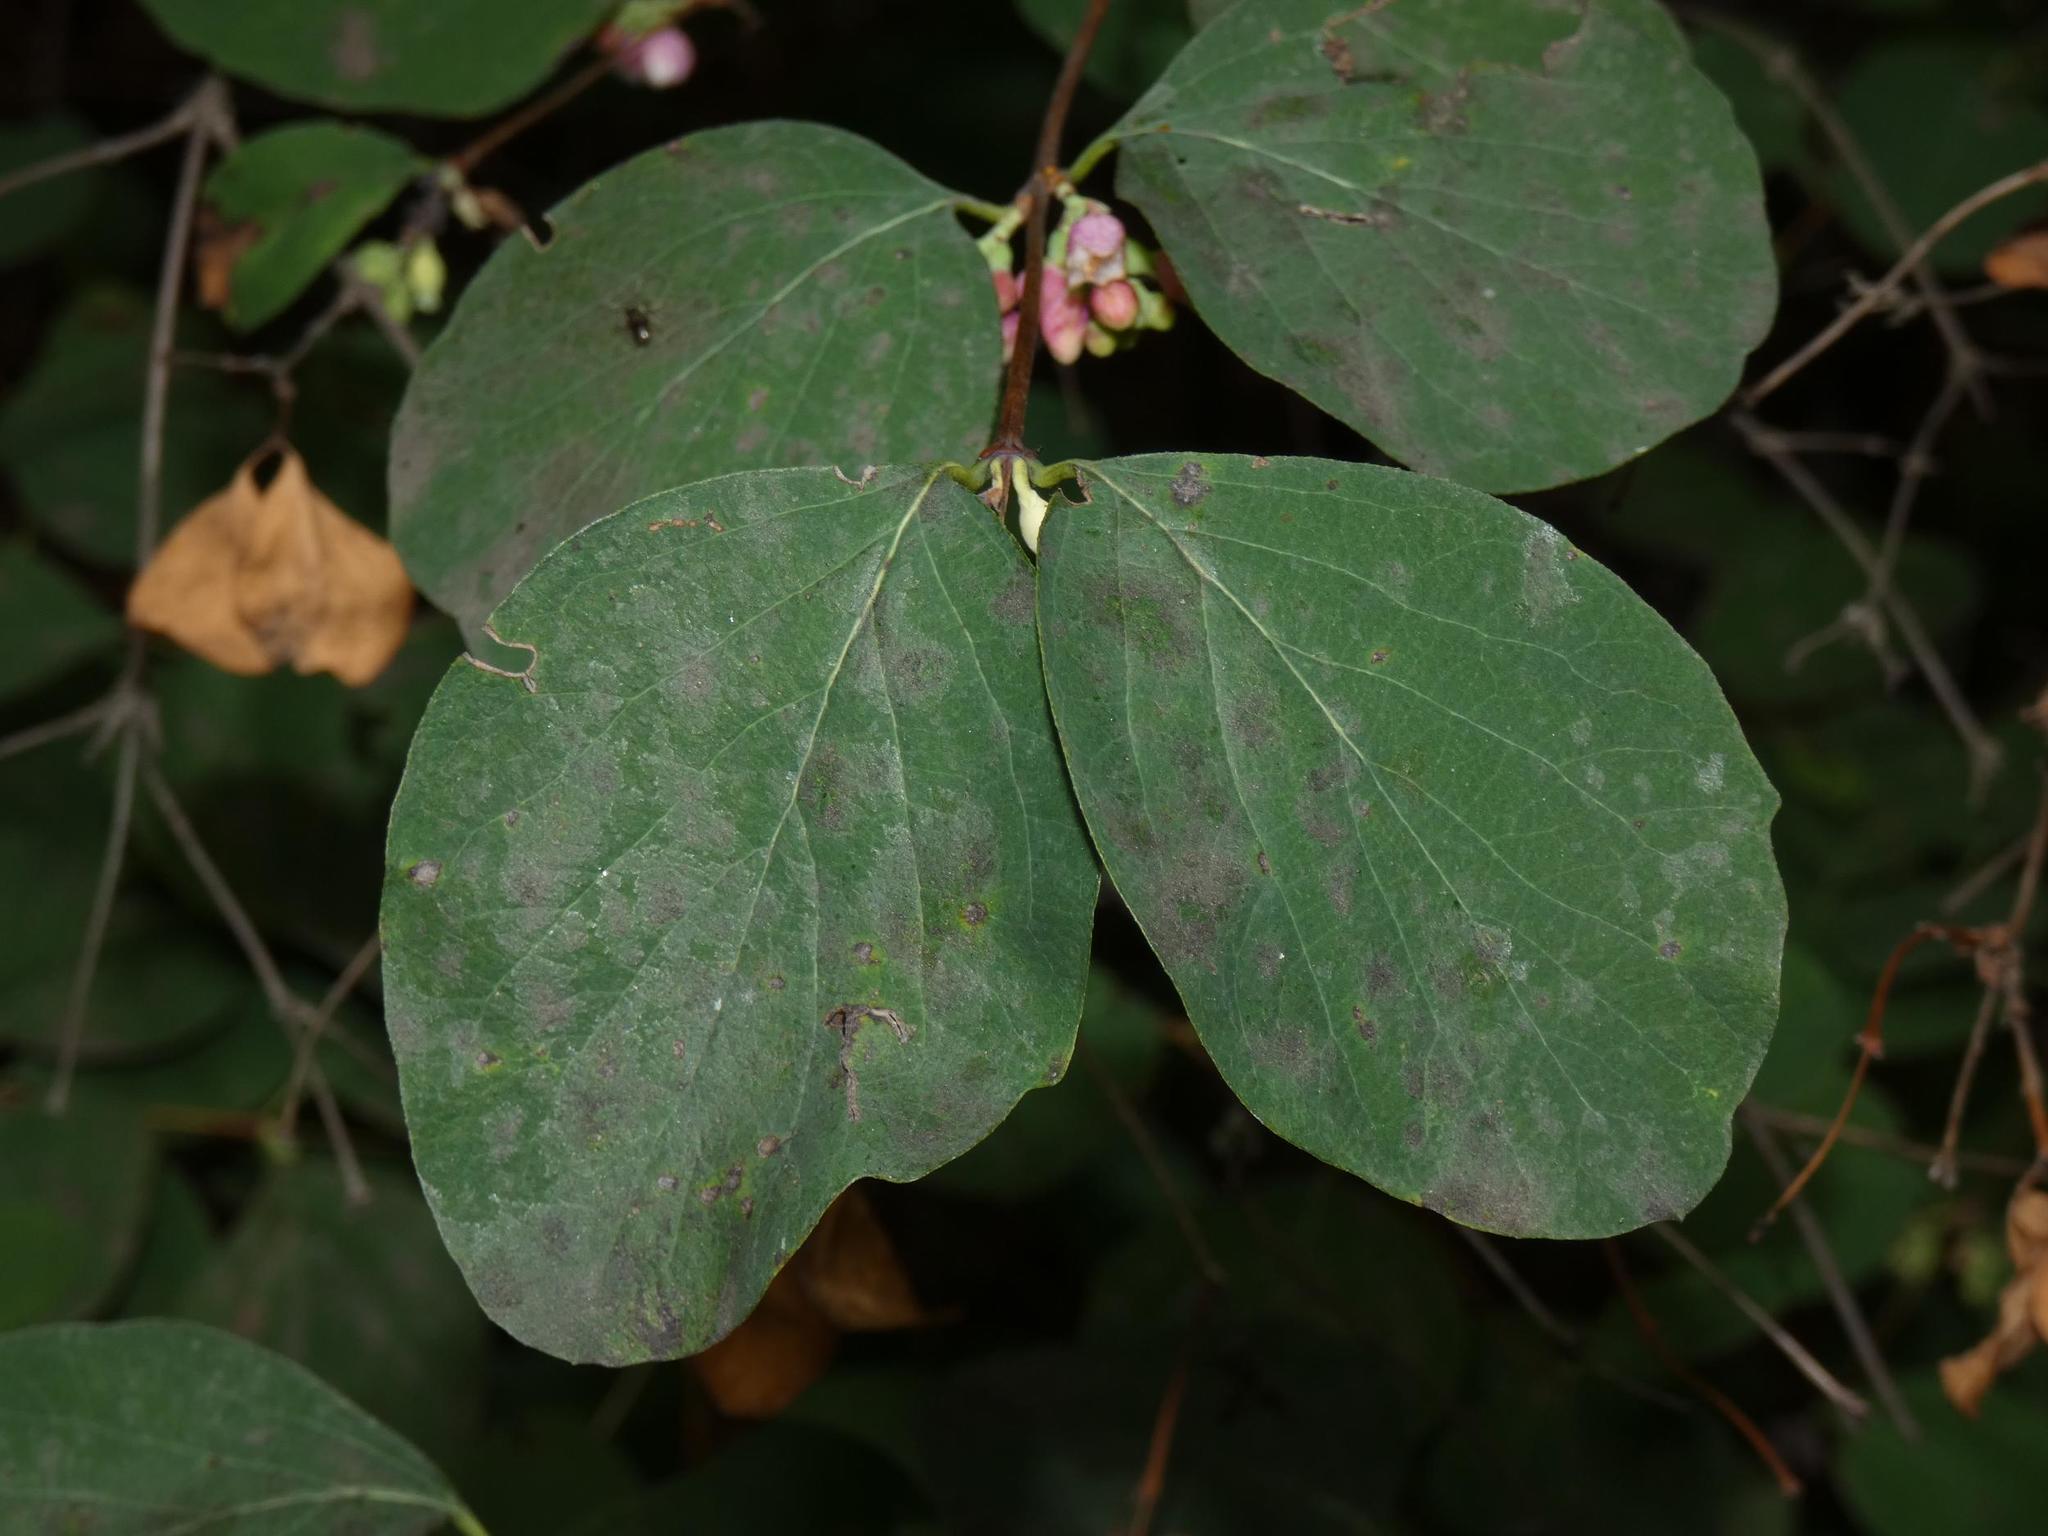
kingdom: Fungi
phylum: Ascomycota
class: Leotiomycetes
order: Helotiales
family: Erysiphaceae
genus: Erysiphe
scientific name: Erysiphe symphoricarpi
